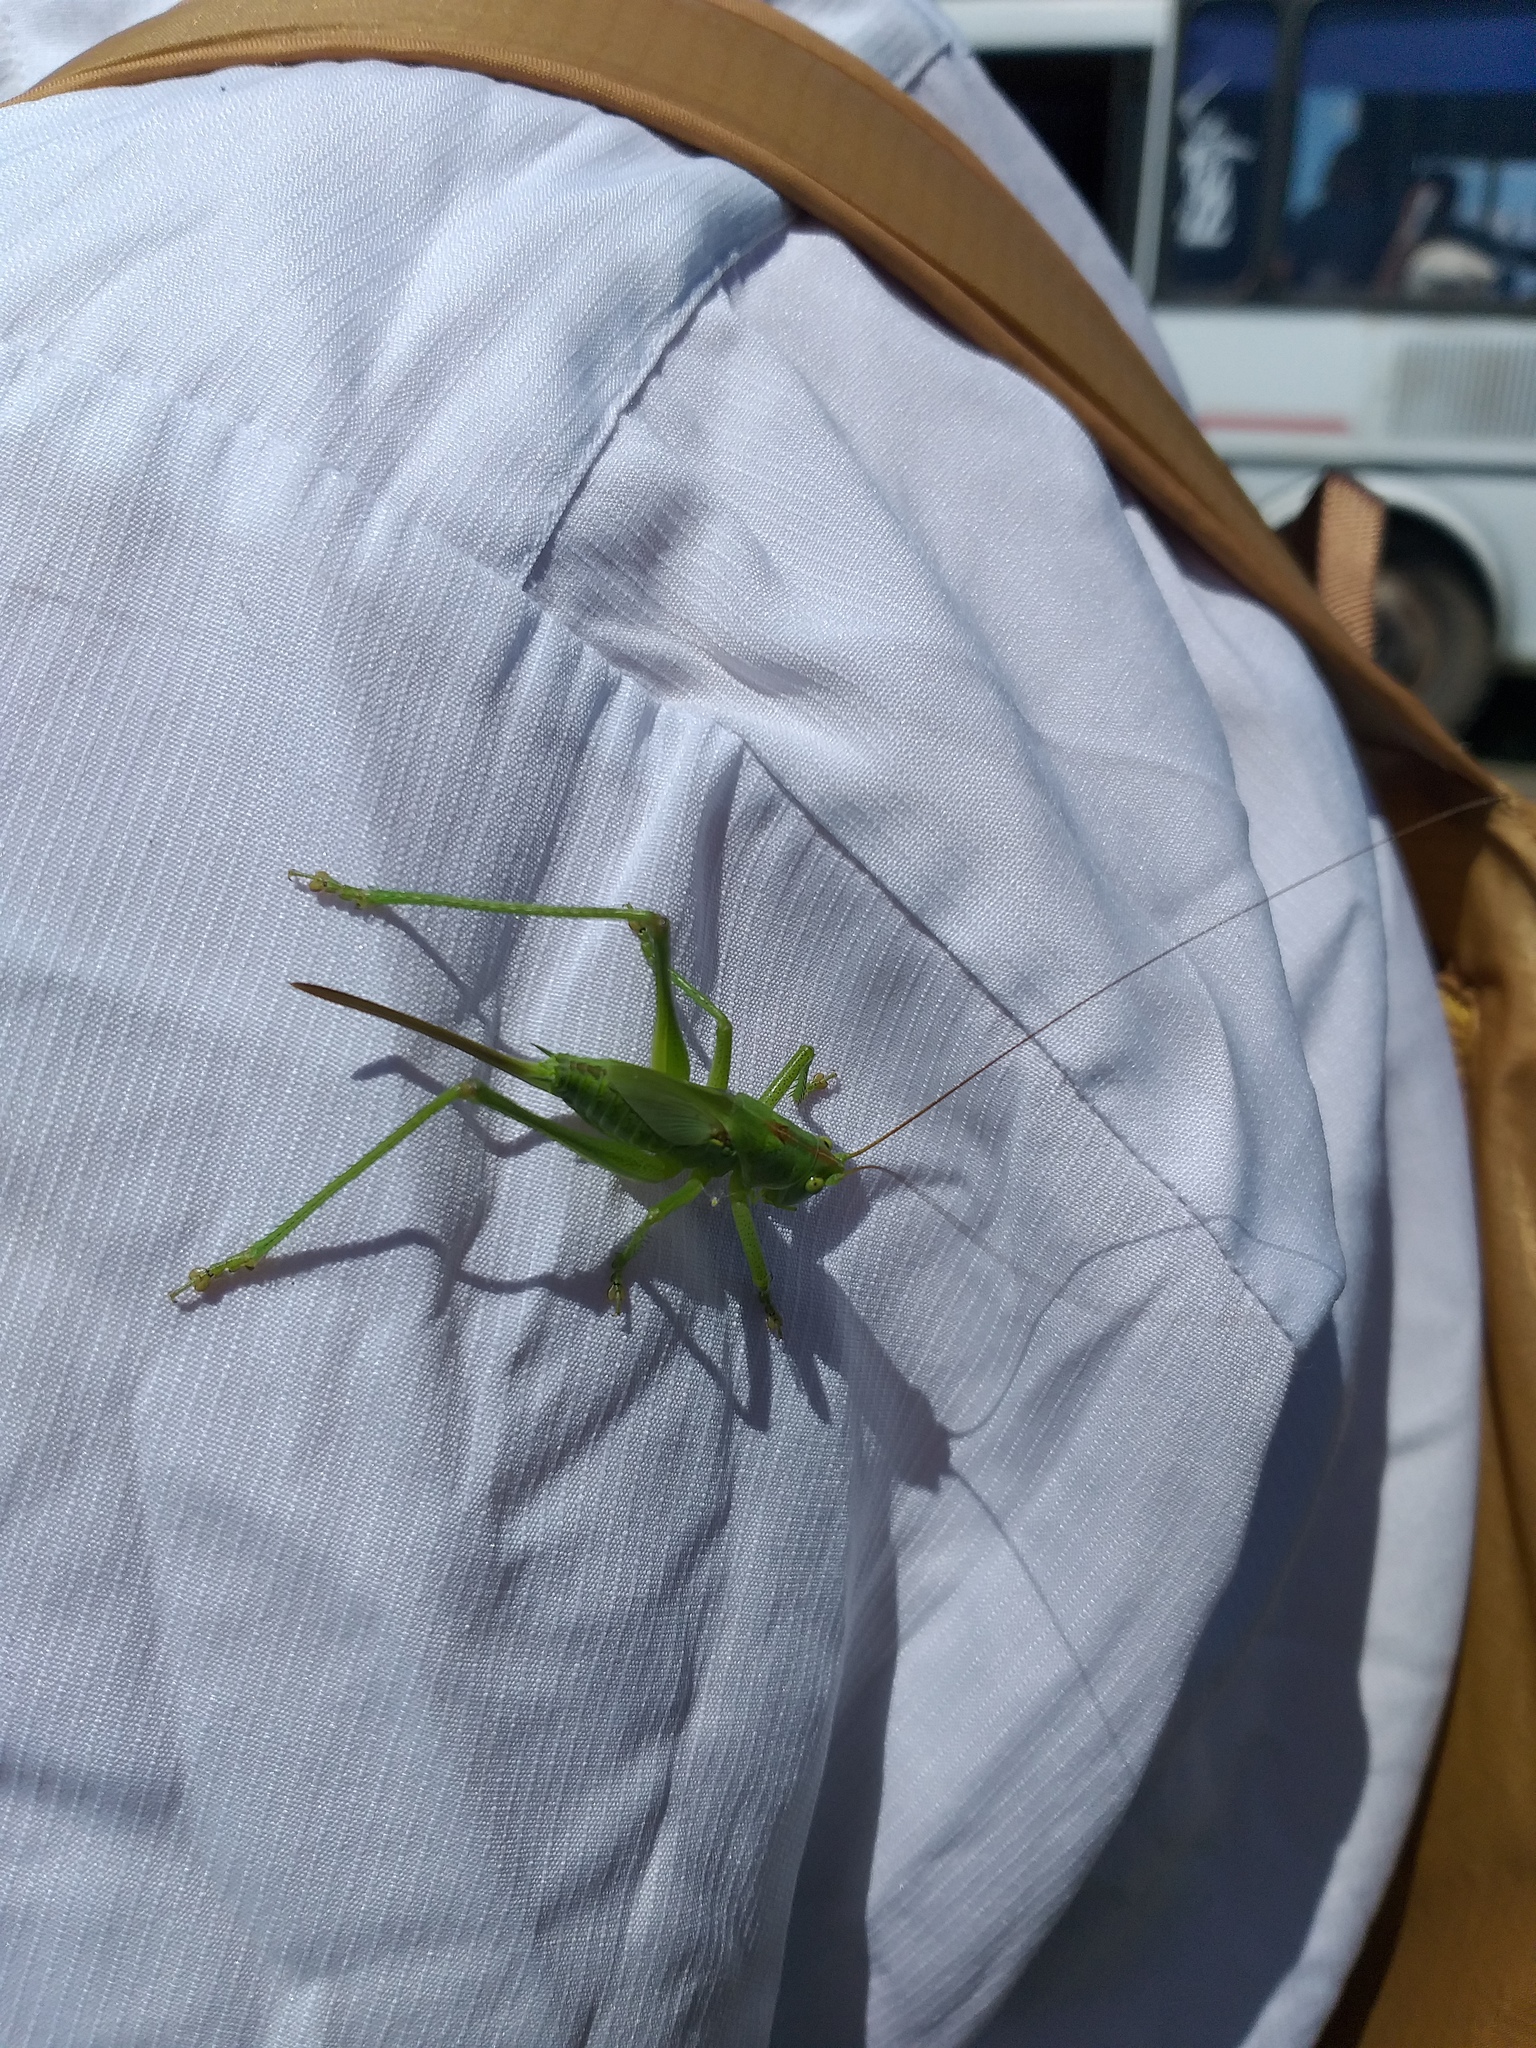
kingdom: Animalia
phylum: Arthropoda
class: Insecta
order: Orthoptera
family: Tettigoniidae
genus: Tettigonia
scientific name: Tettigonia viridissima
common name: Great green bush-cricket
